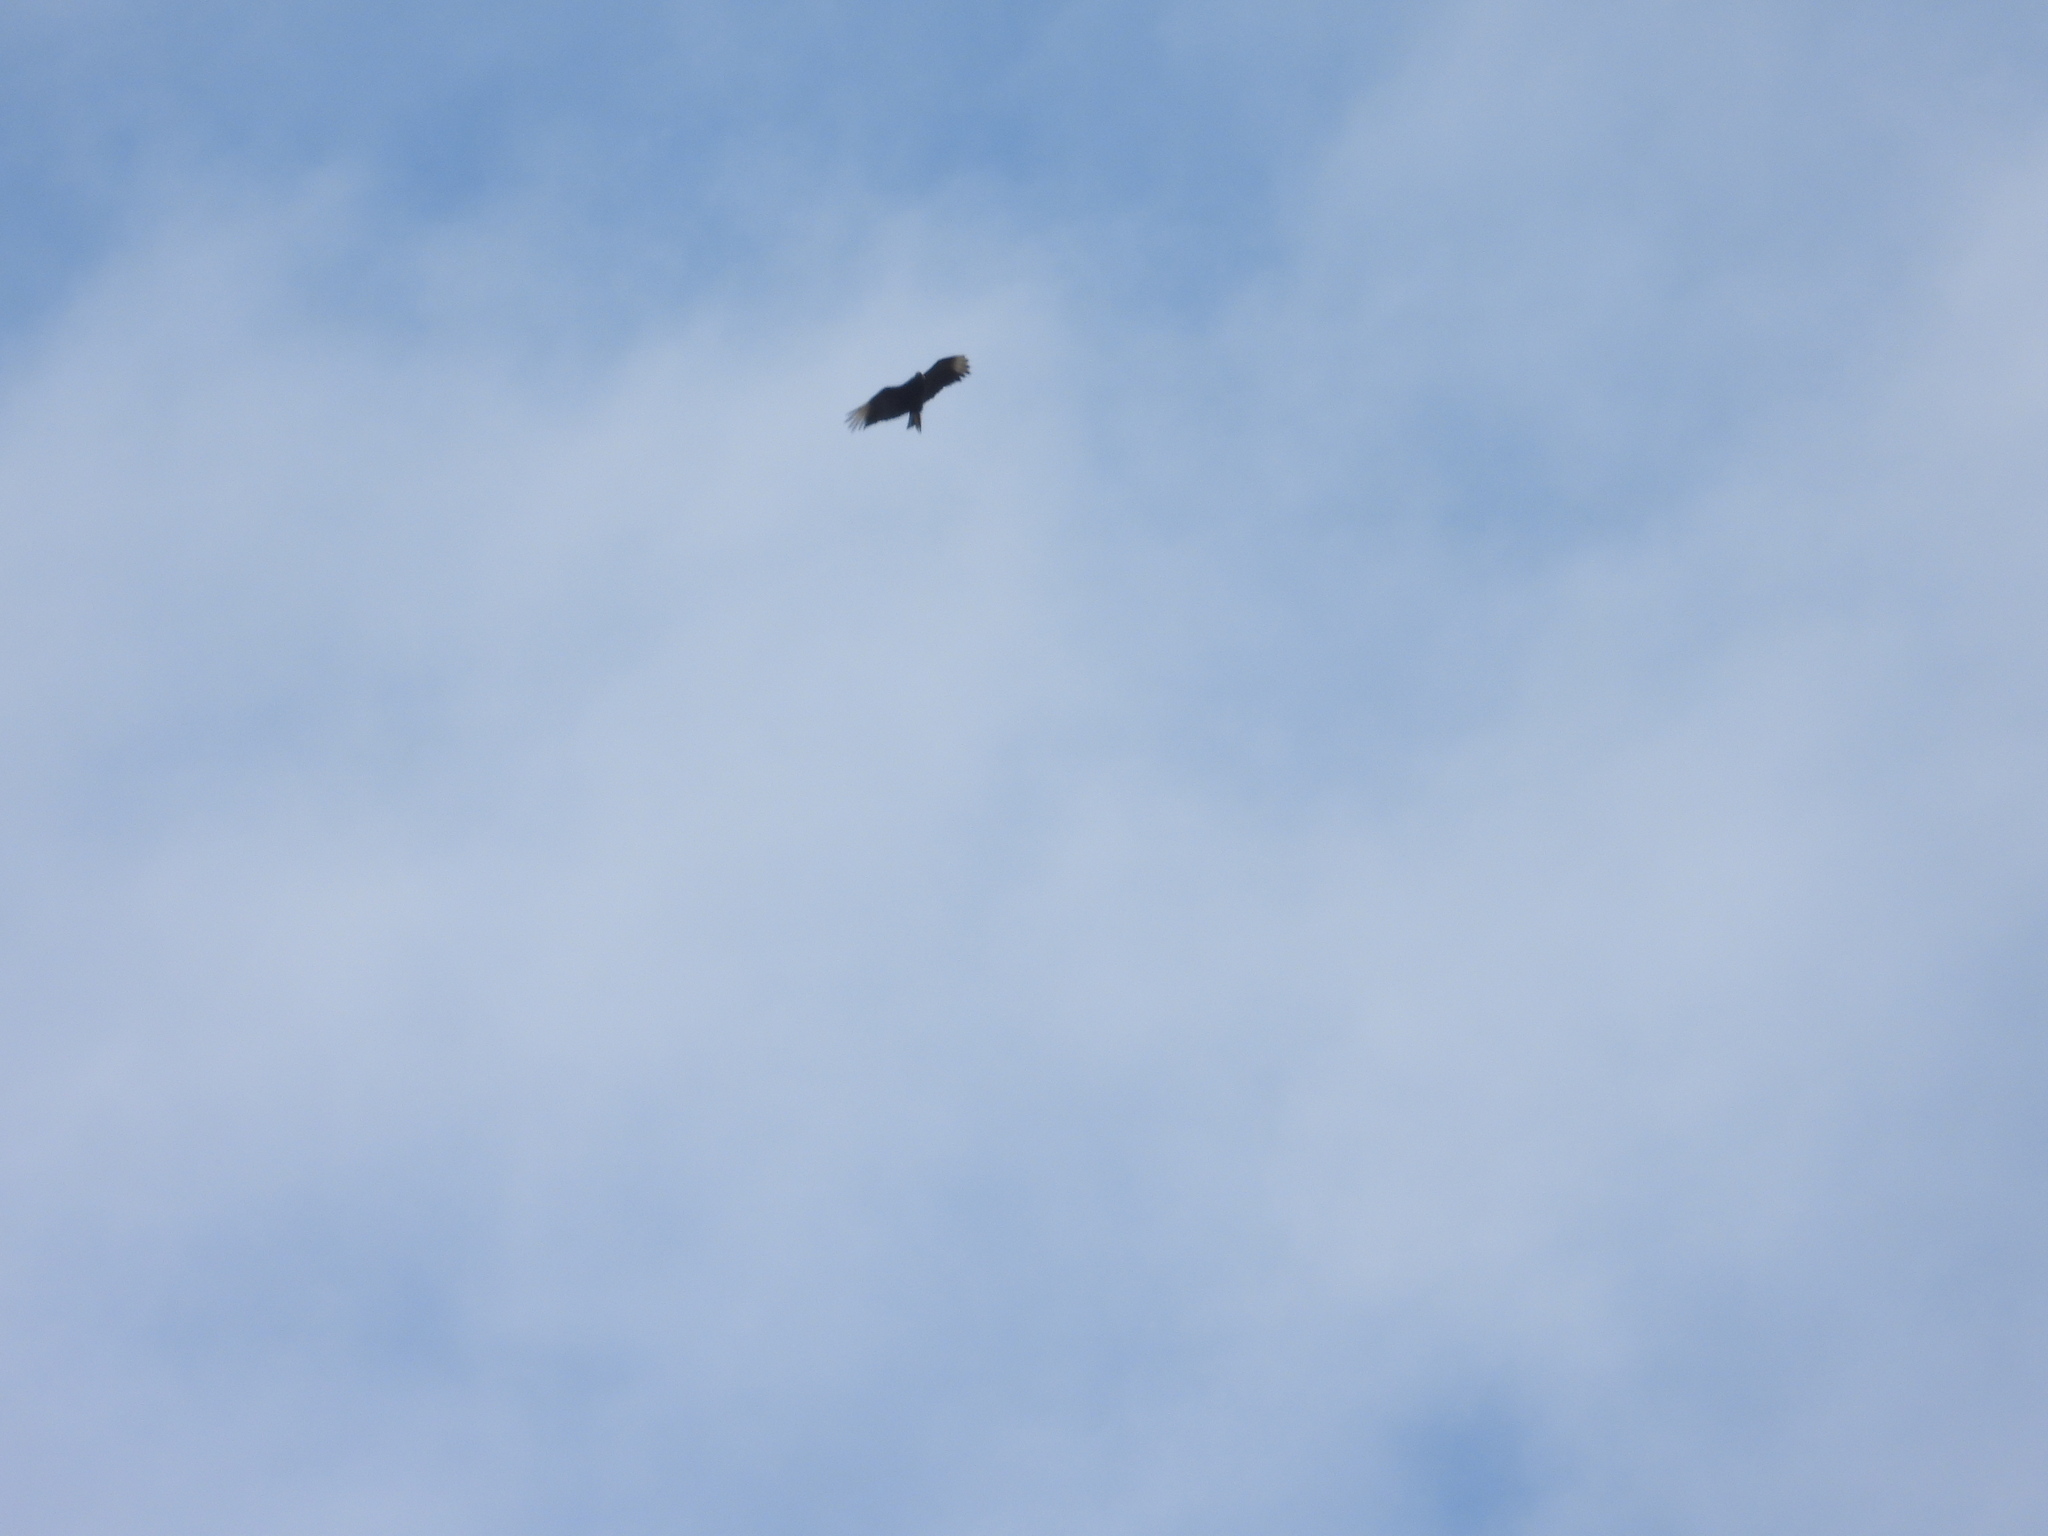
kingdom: Animalia
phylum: Chordata
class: Aves
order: Accipitriformes
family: Cathartidae
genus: Coragyps
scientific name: Coragyps atratus
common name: Black vulture
